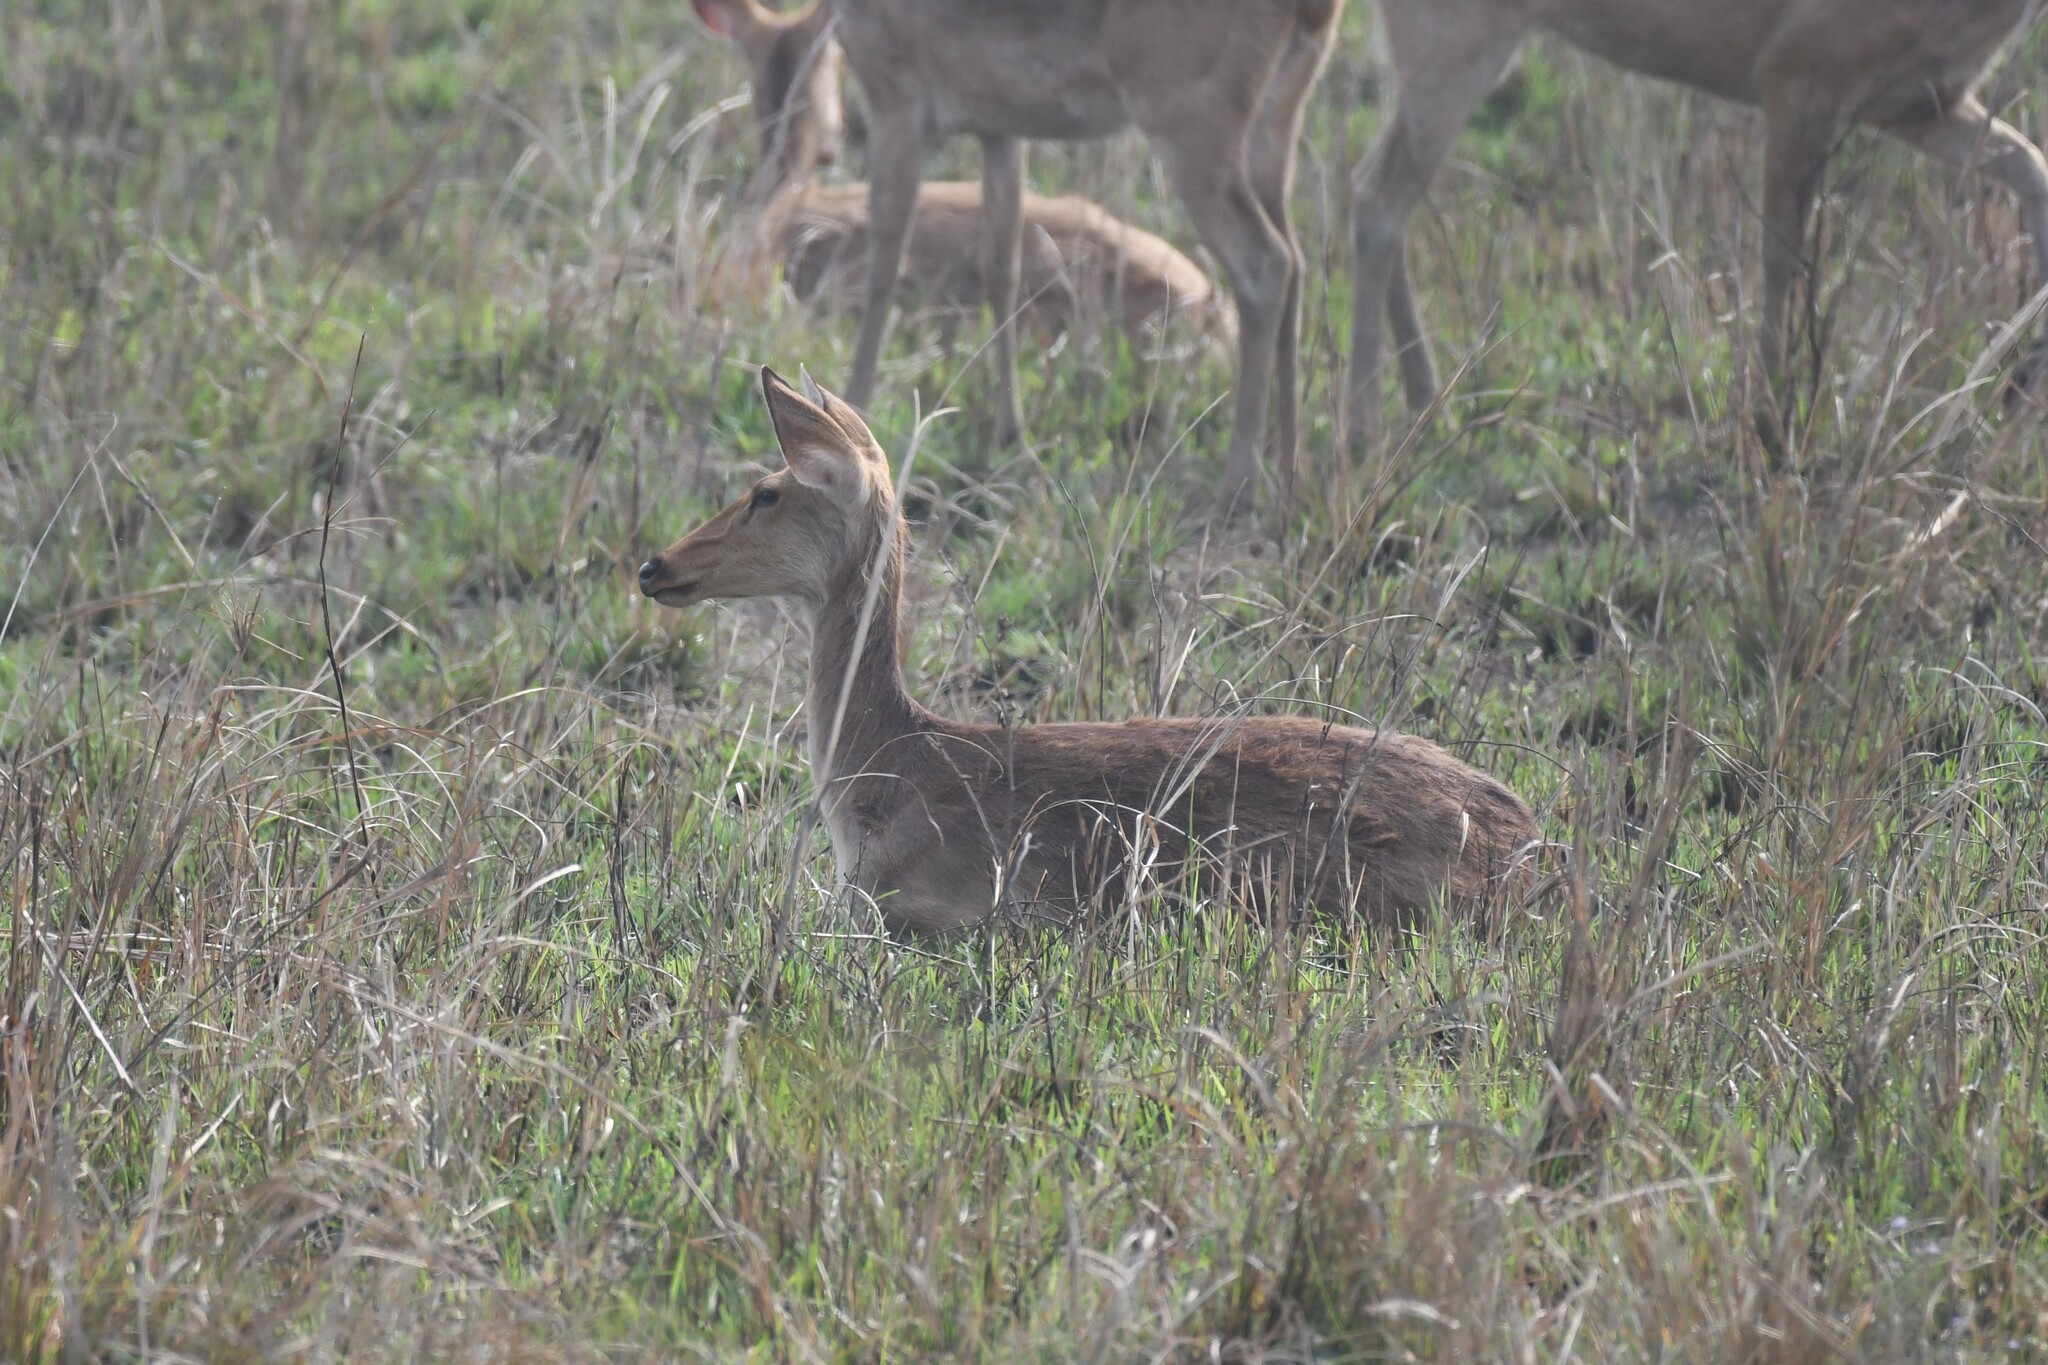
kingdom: Animalia
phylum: Chordata
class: Mammalia
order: Artiodactyla
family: Cervidae
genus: Rucervus
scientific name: Rucervus duvaucelii
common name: Barasingha
